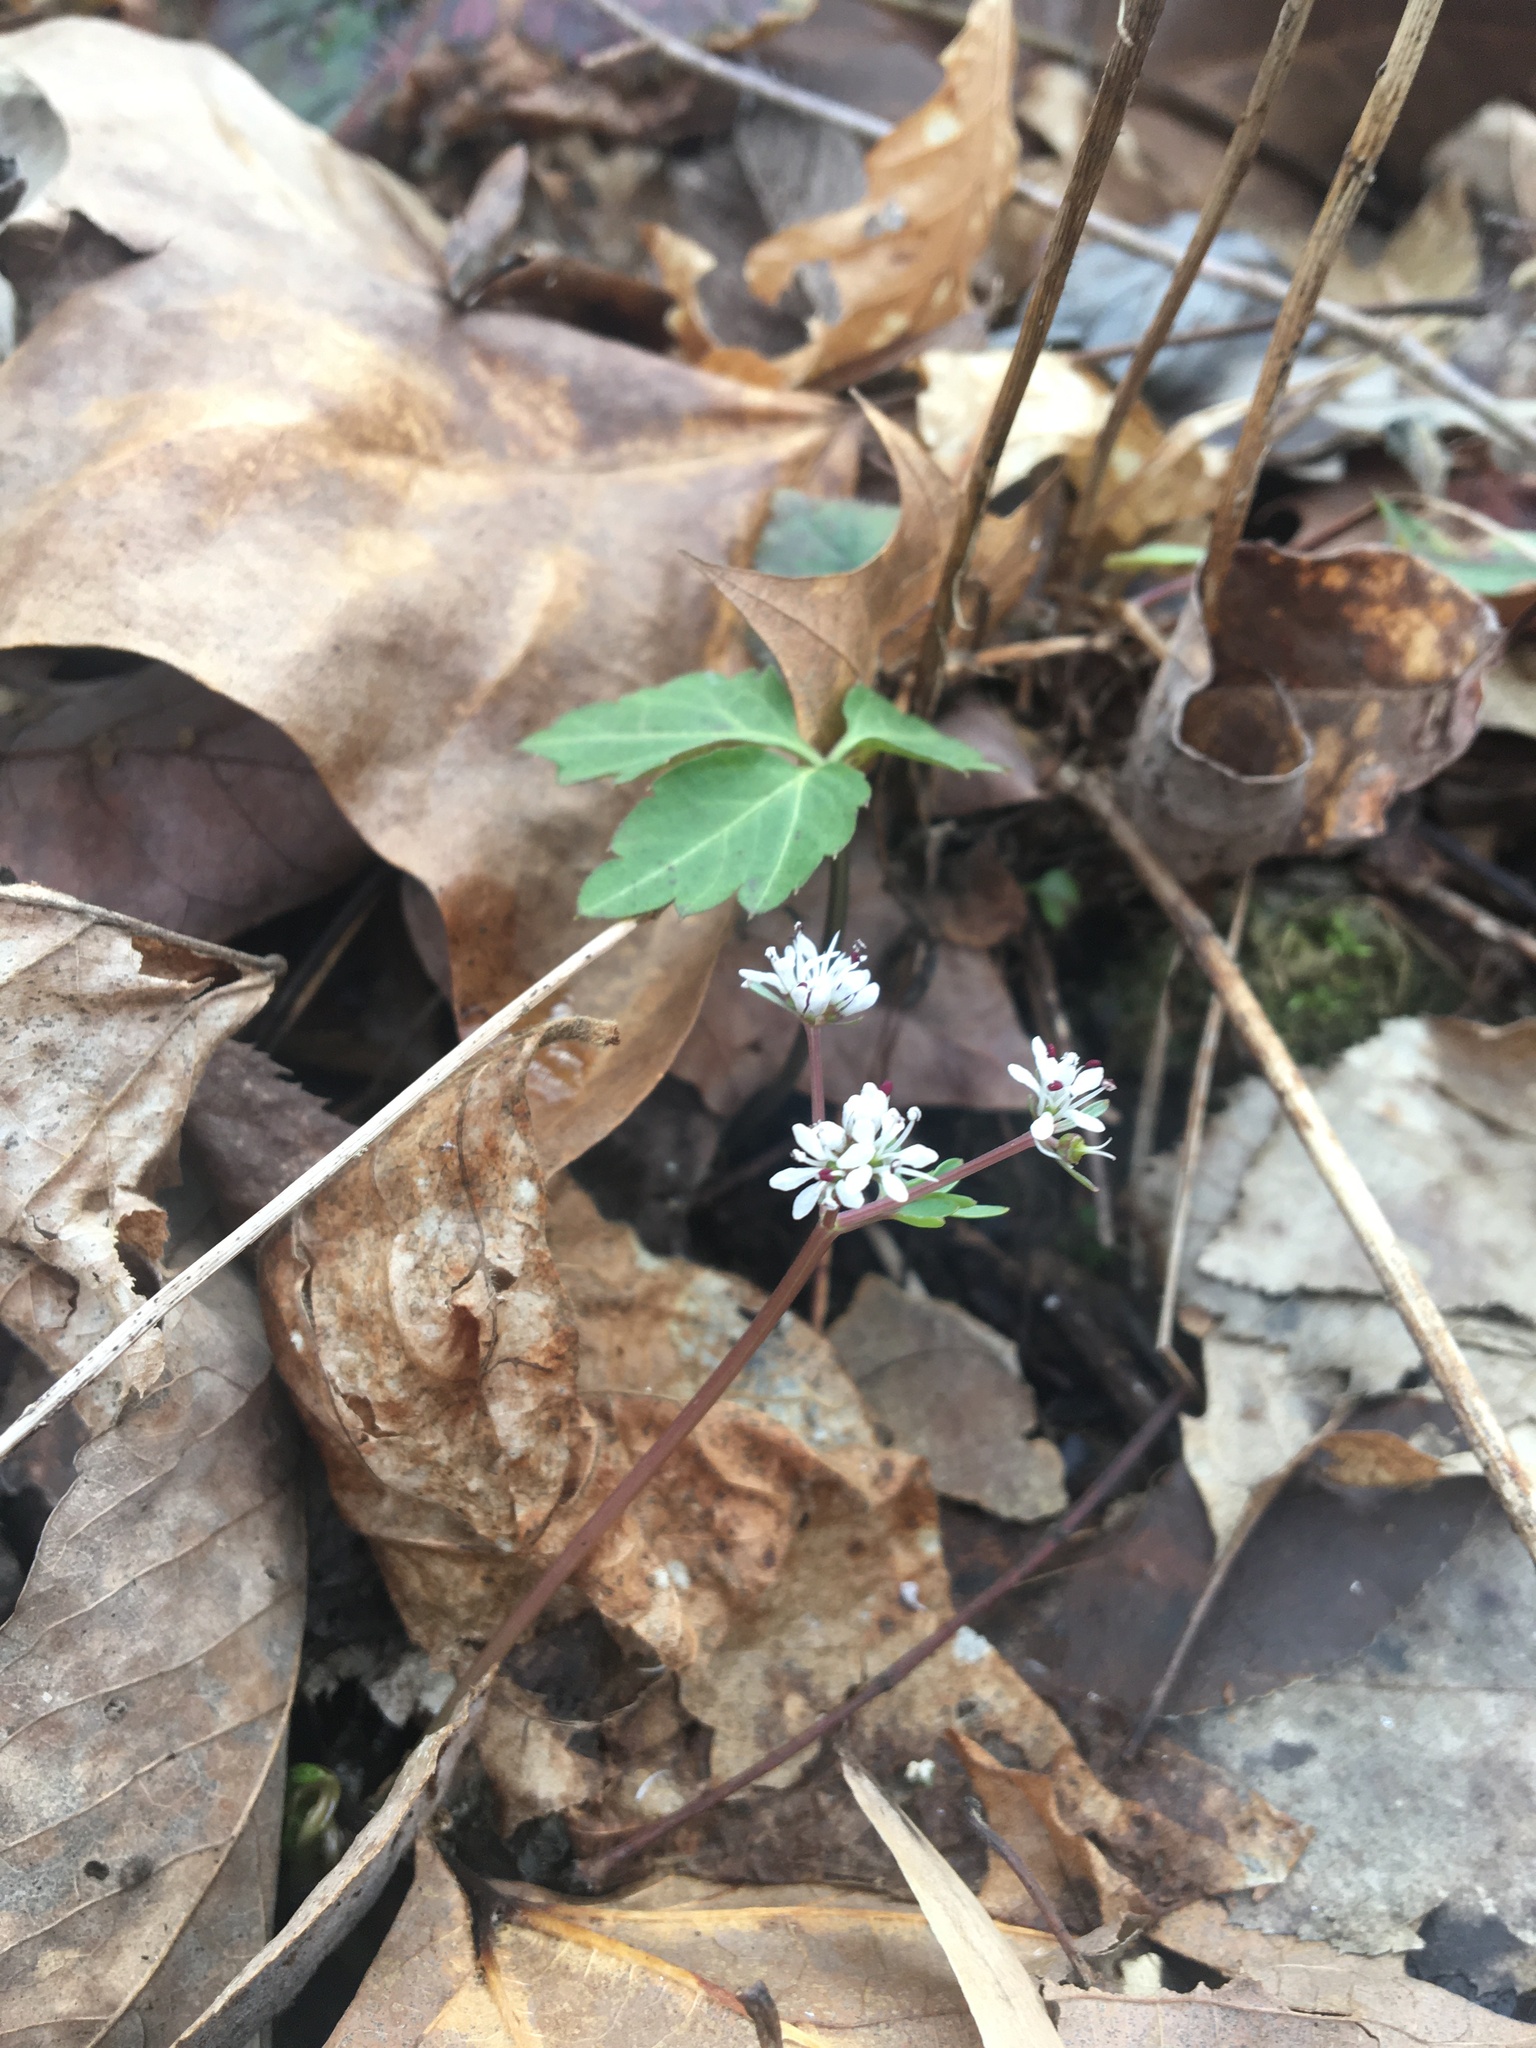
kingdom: Plantae
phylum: Tracheophyta
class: Magnoliopsida
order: Apiales
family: Apiaceae
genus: Erigenia
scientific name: Erigenia bulbosa
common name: Pepper-and-salt
